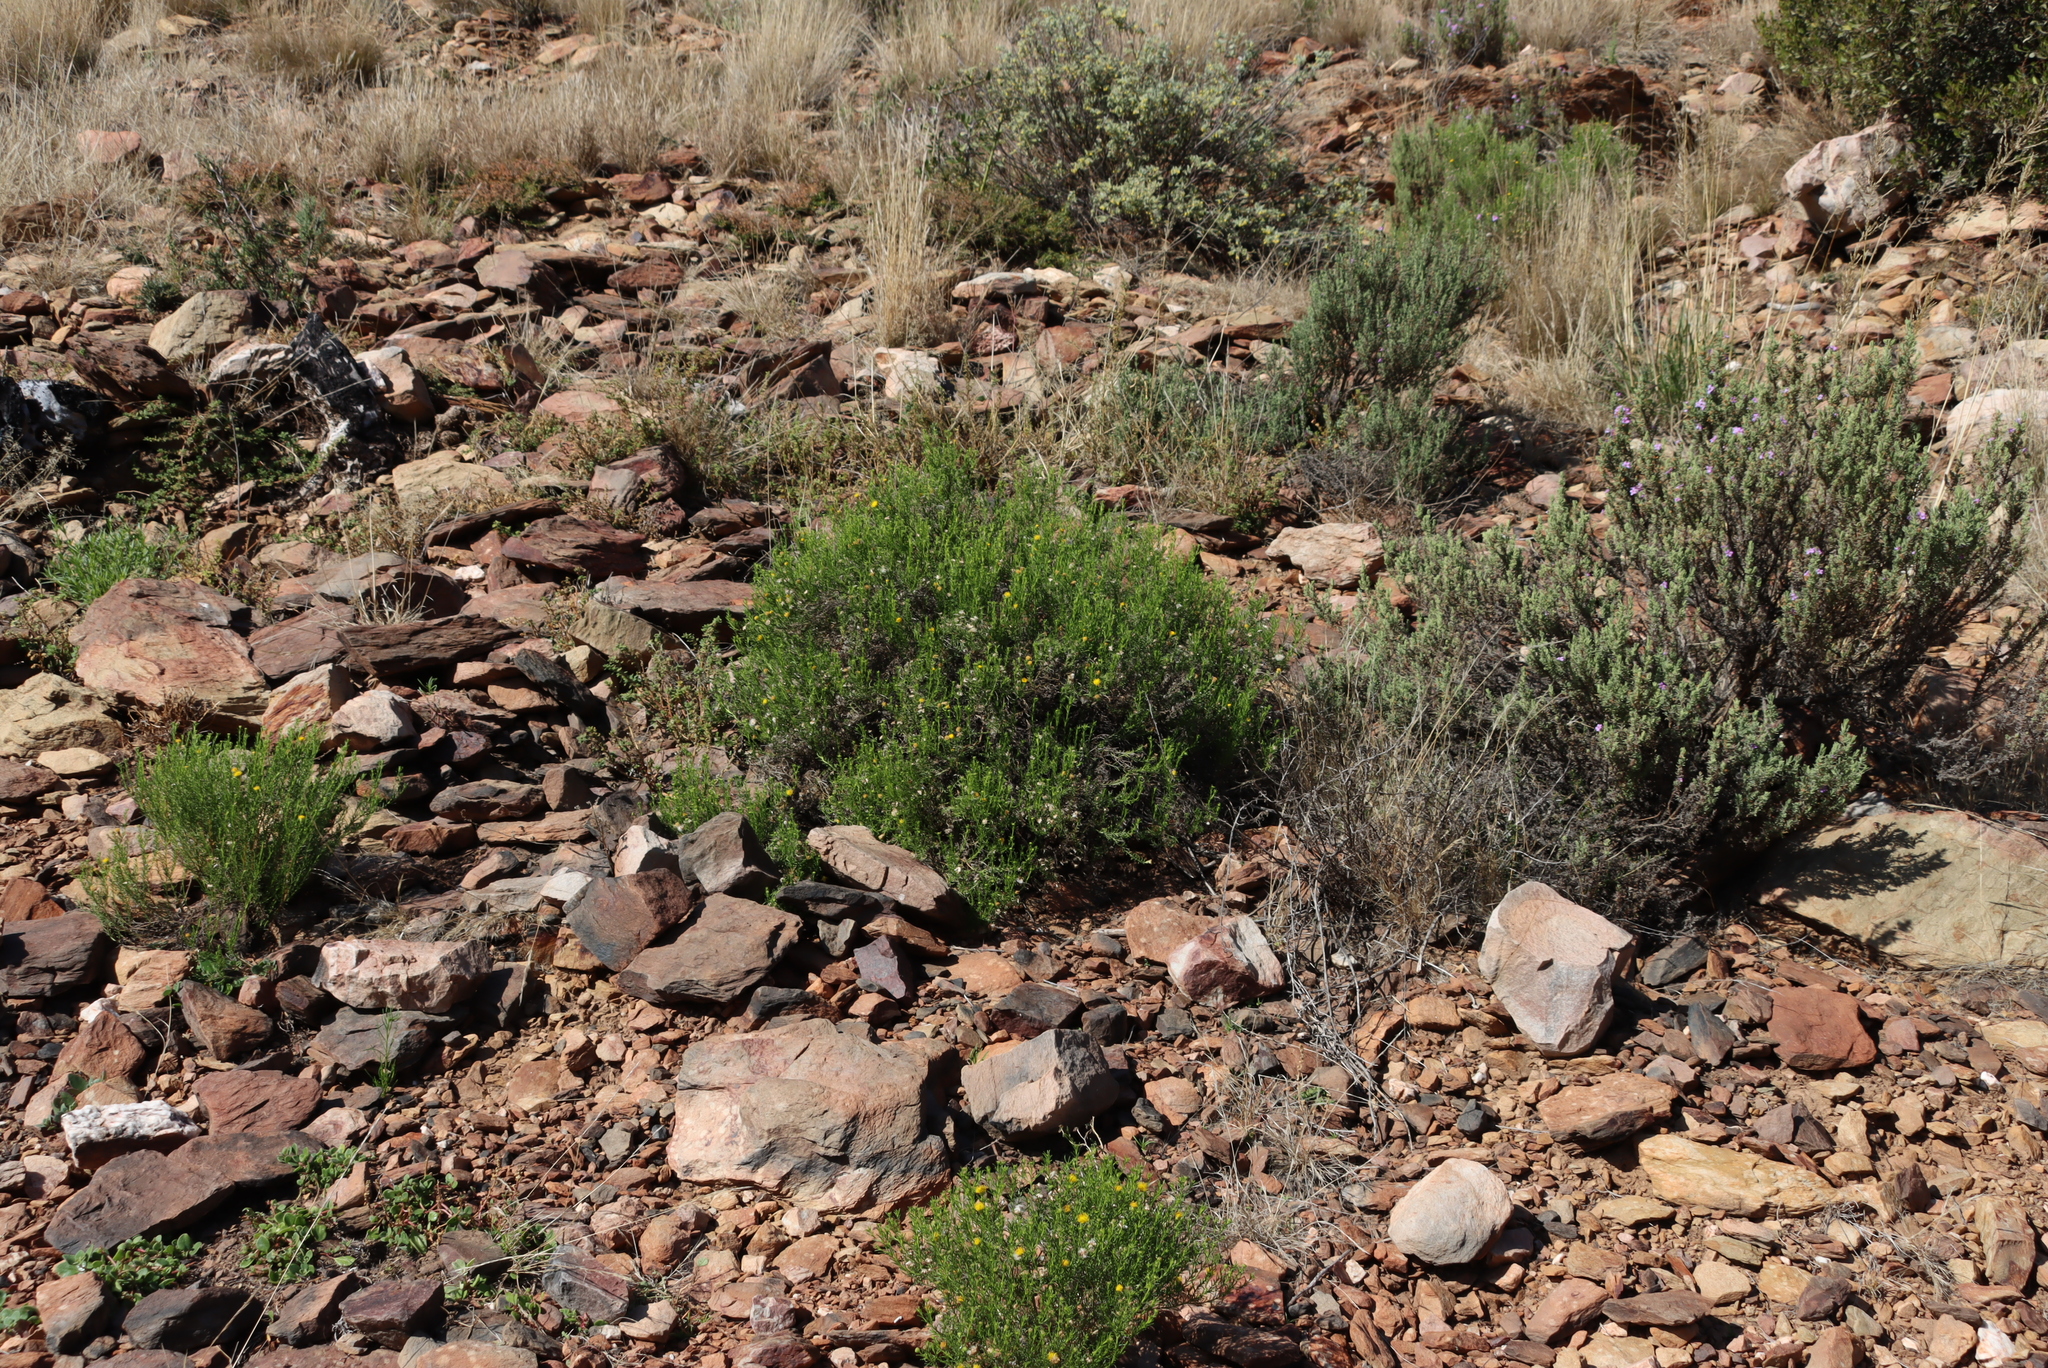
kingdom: Plantae
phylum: Tracheophyta
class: Magnoliopsida
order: Asterales
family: Asteraceae
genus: Chrysocoma
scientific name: Chrysocoma ciliata
